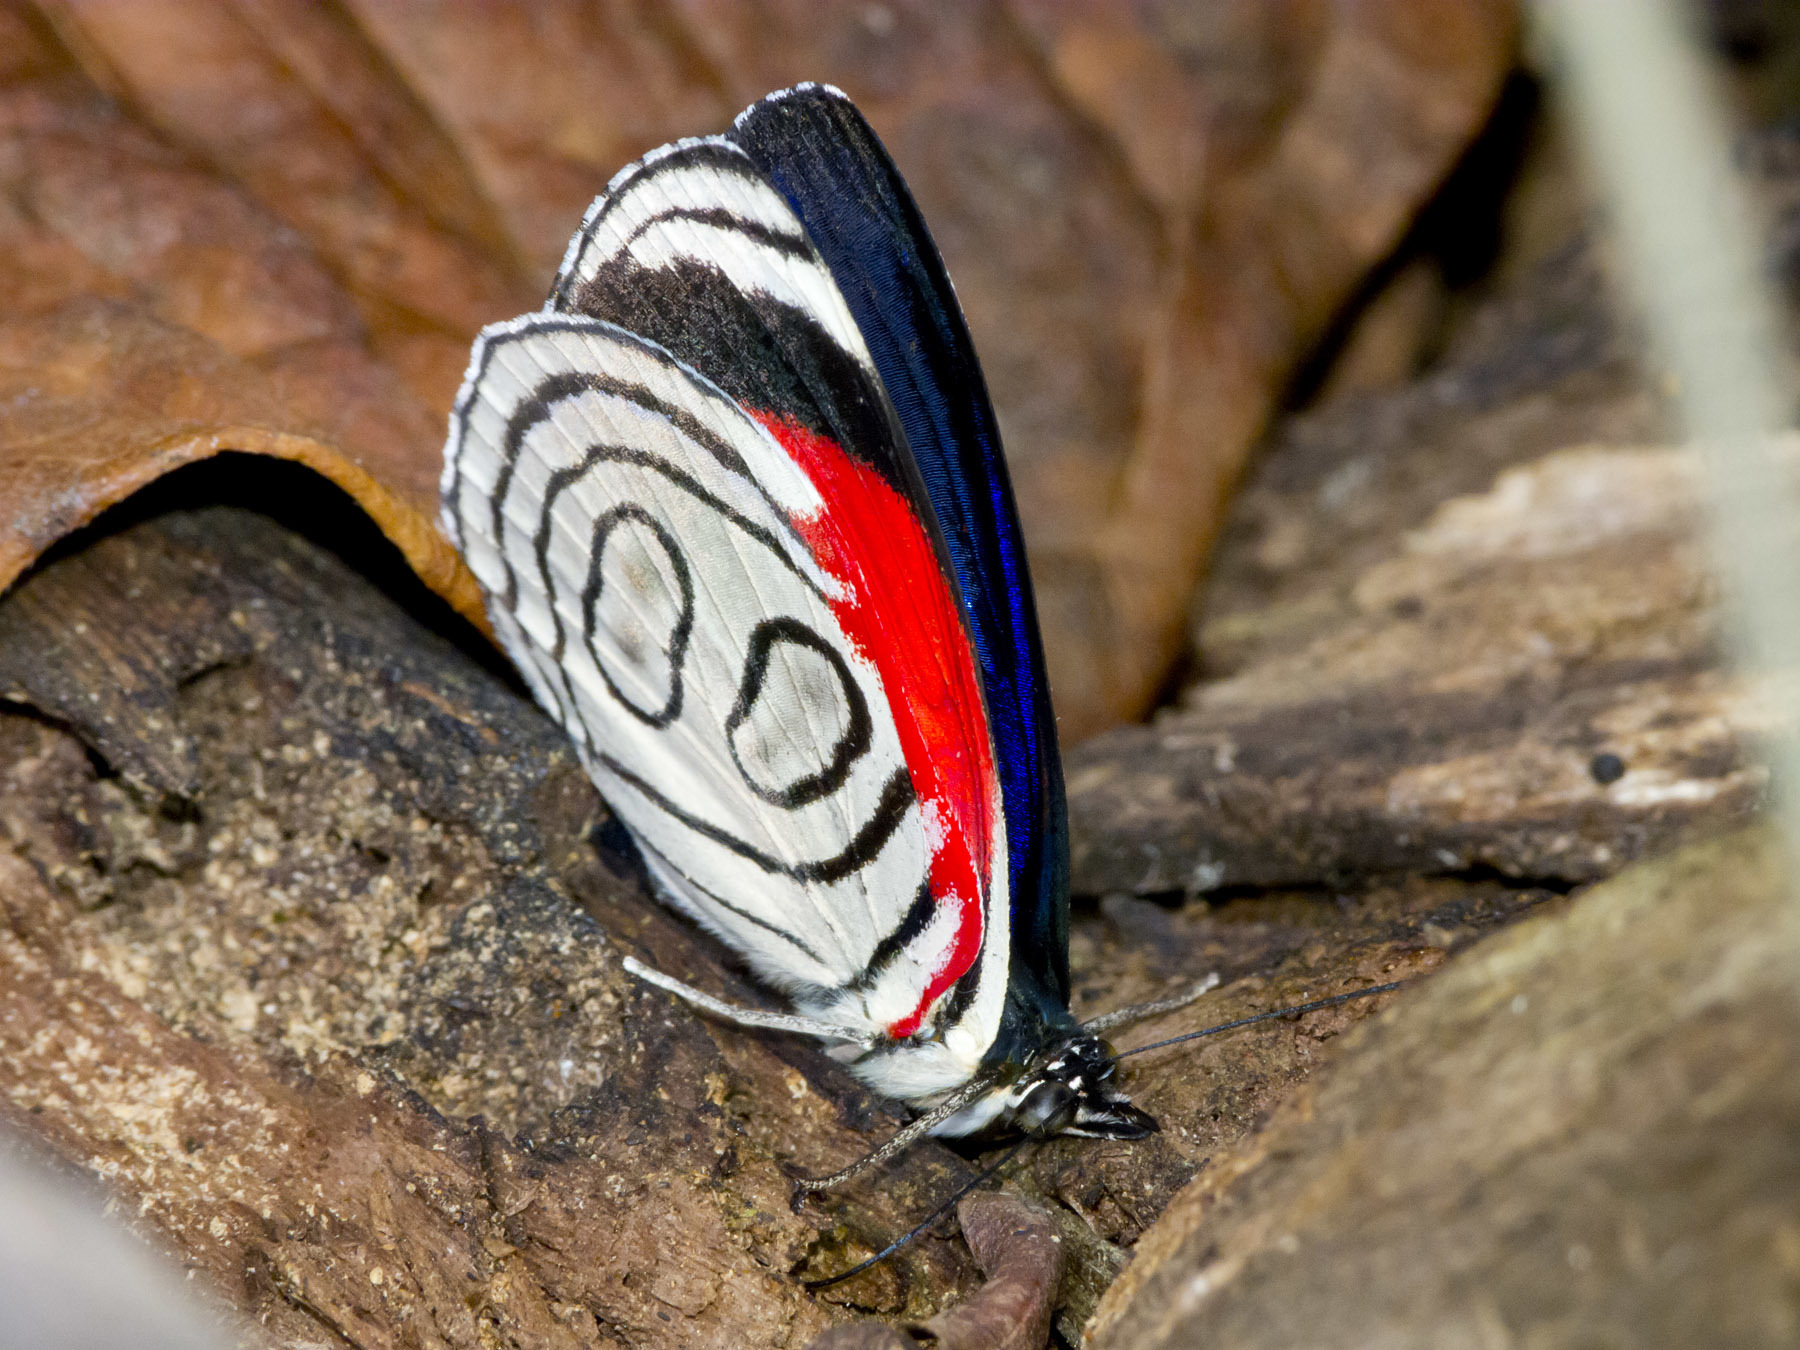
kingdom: Animalia
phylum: Arthropoda
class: Insecta
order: Lepidoptera
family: Nymphalidae
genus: Diaethria
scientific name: Diaethria gabaza
